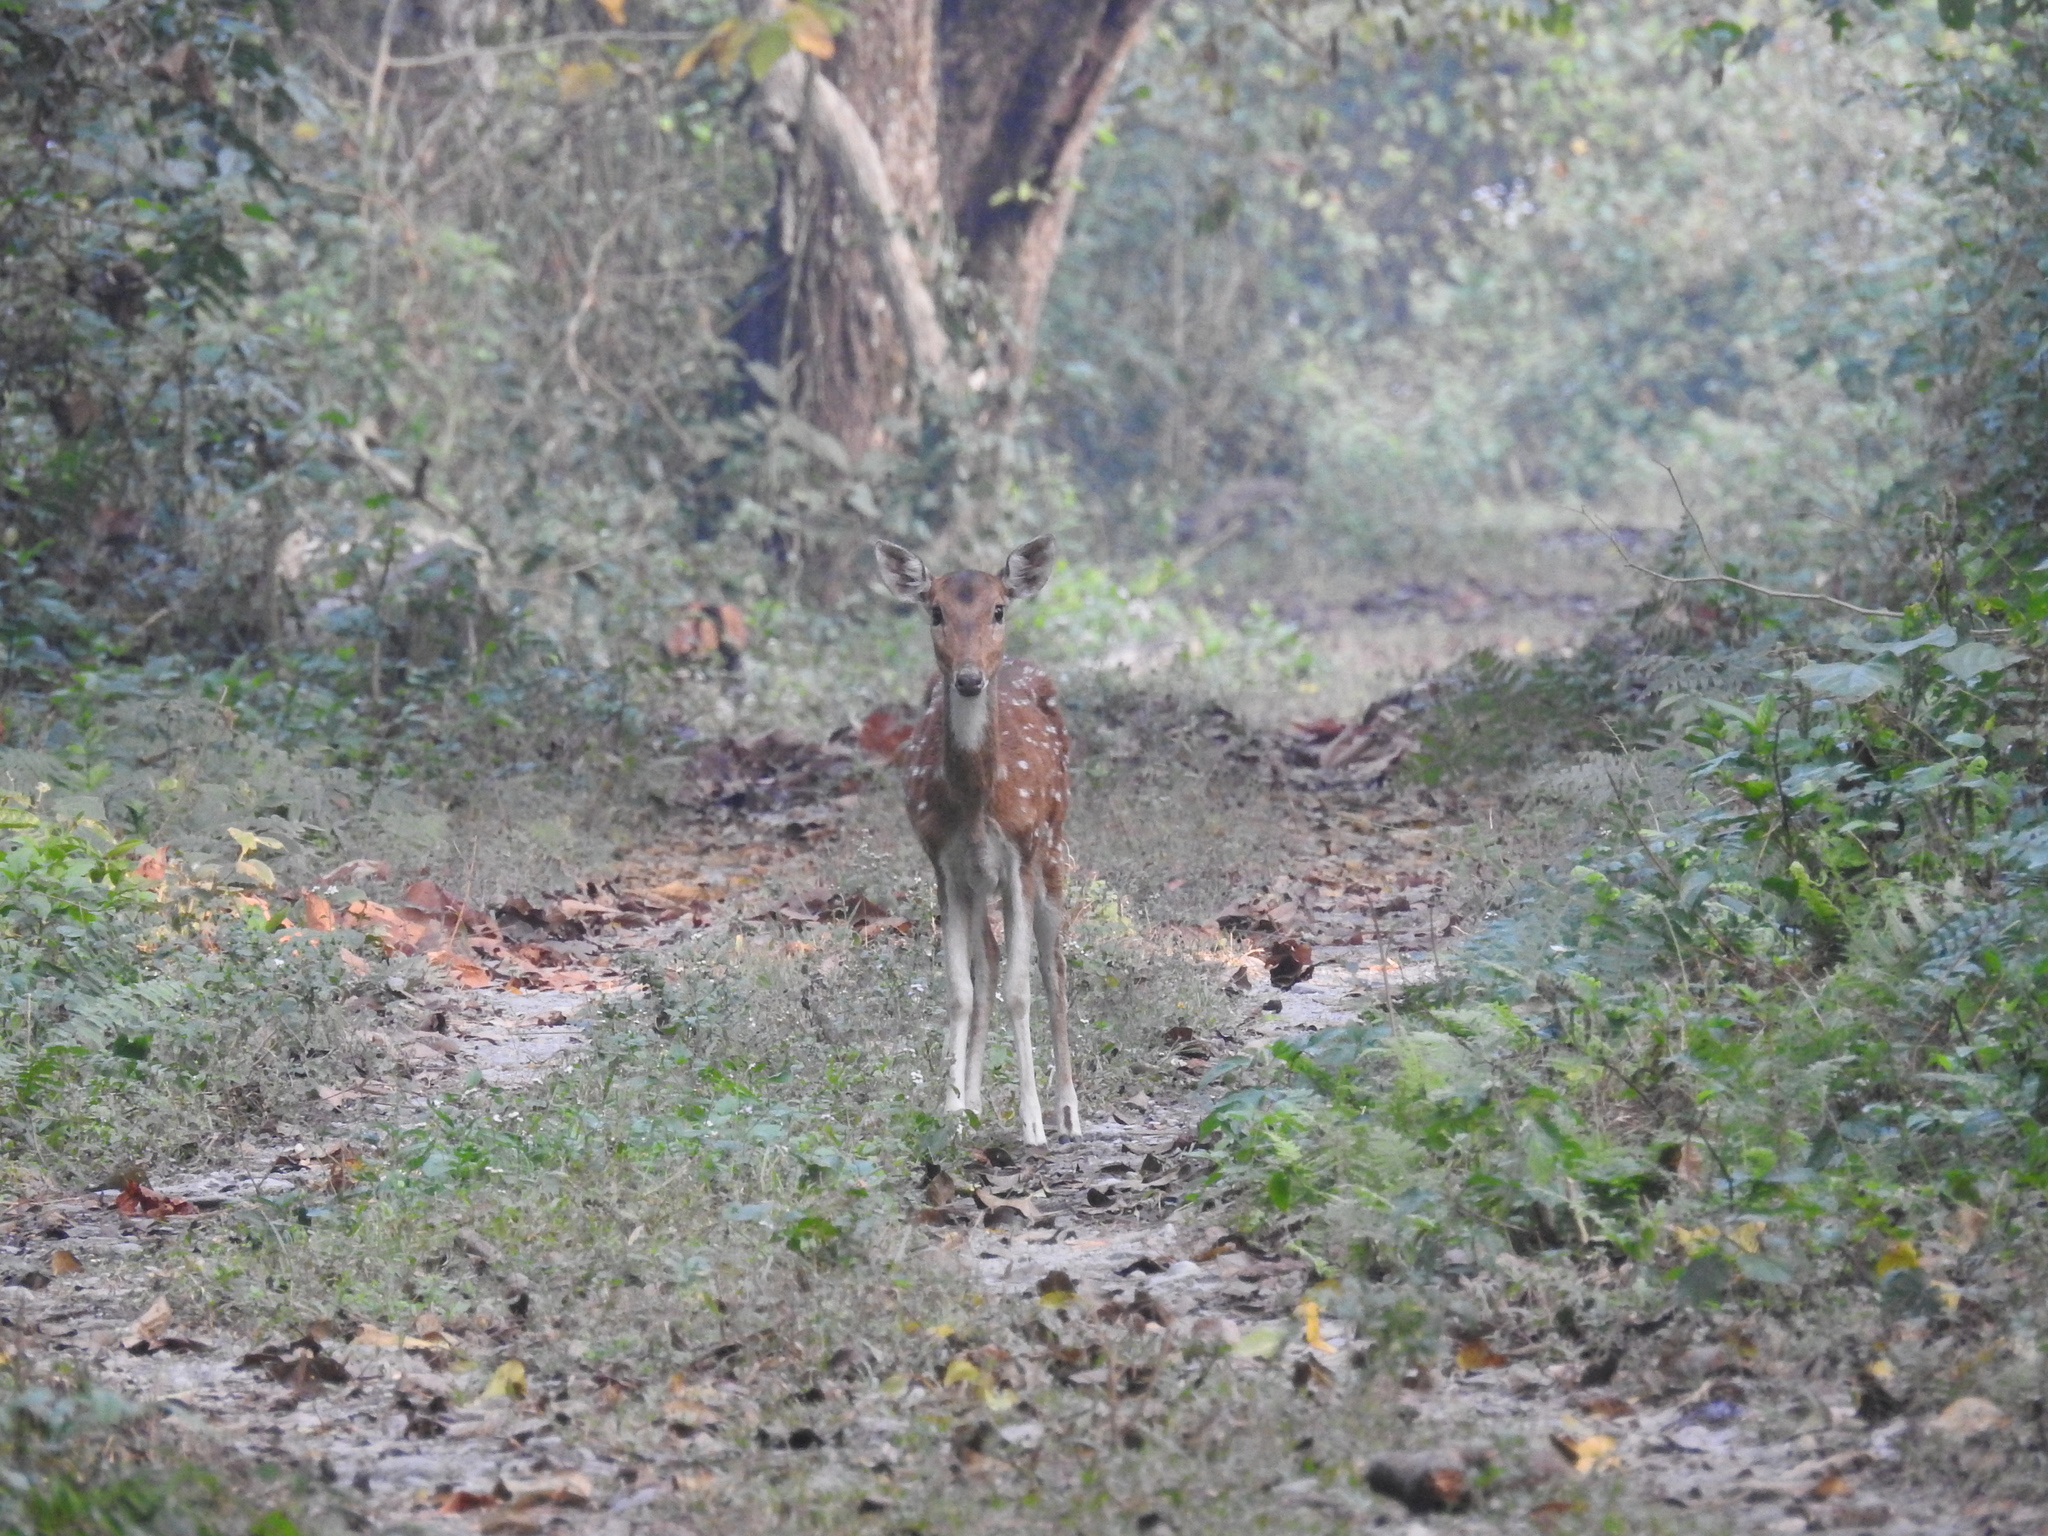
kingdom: Animalia
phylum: Chordata
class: Mammalia
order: Artiodactyla
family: Cervidae
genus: Axis
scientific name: Axis axis
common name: Chital
